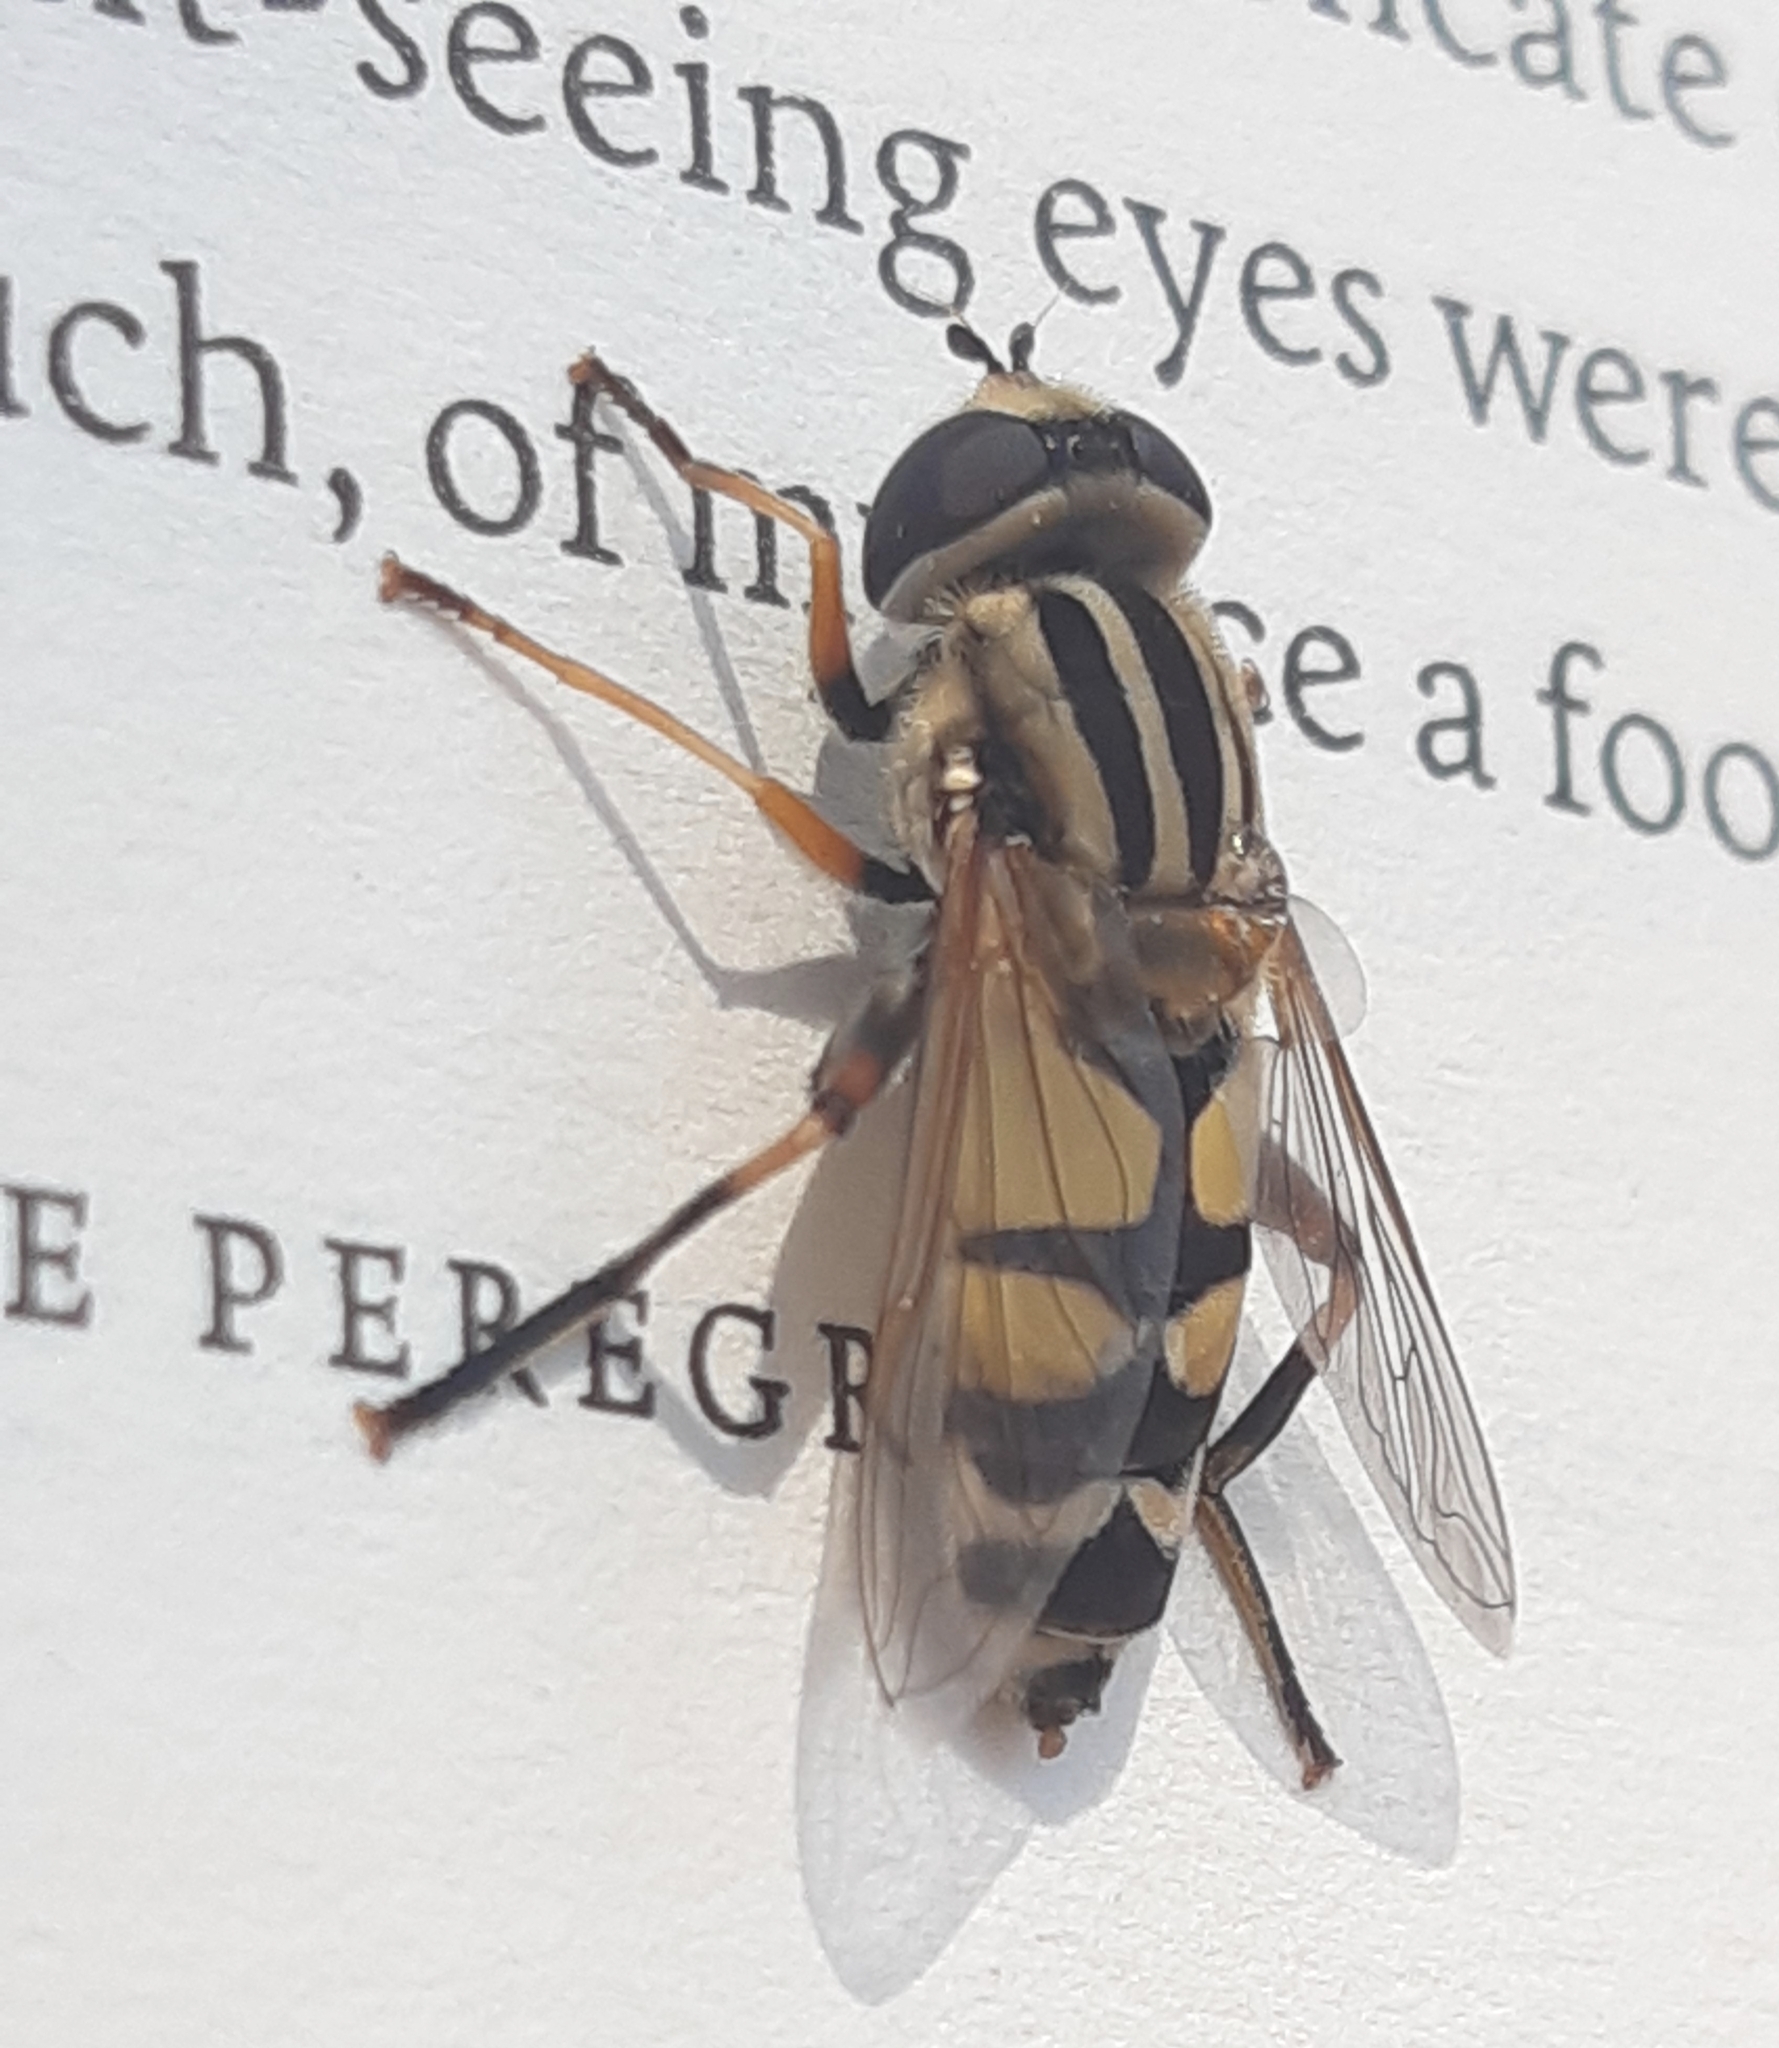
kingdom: Animalia
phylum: Arthropoda
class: Insecta
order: Diptera
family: Syrphidae
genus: Helophilus
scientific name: Helophilus trivittatus
